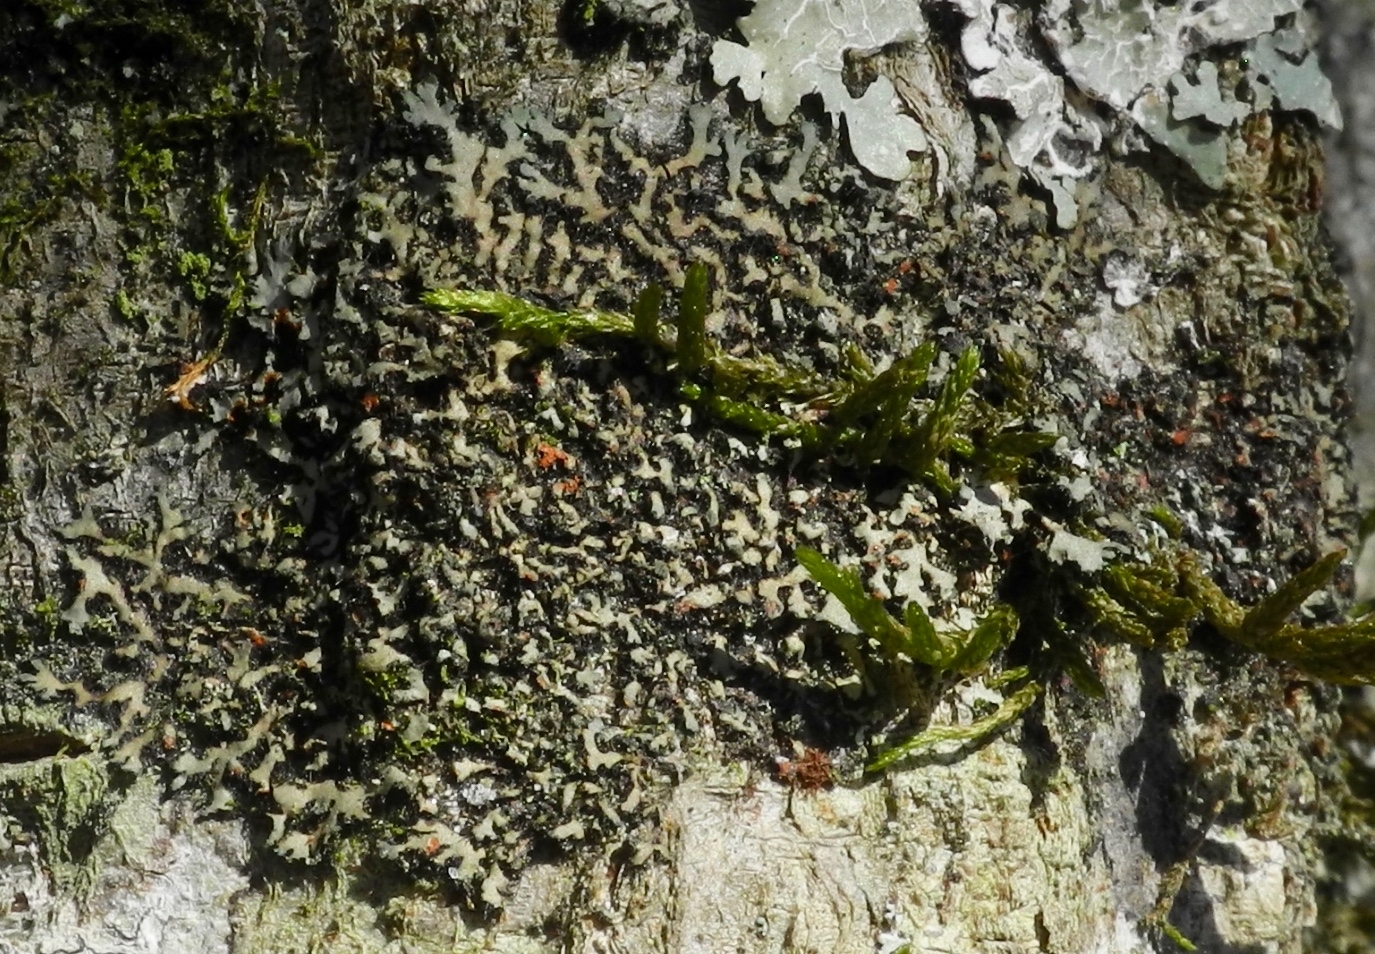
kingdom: Fungi
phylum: Ascomycota
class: Lecanoromycetes
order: Caliciales
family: Physciaceae
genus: Phaeophyscia
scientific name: Phaeophyscia rubropulchra
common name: Orange-cored shadow lichen
